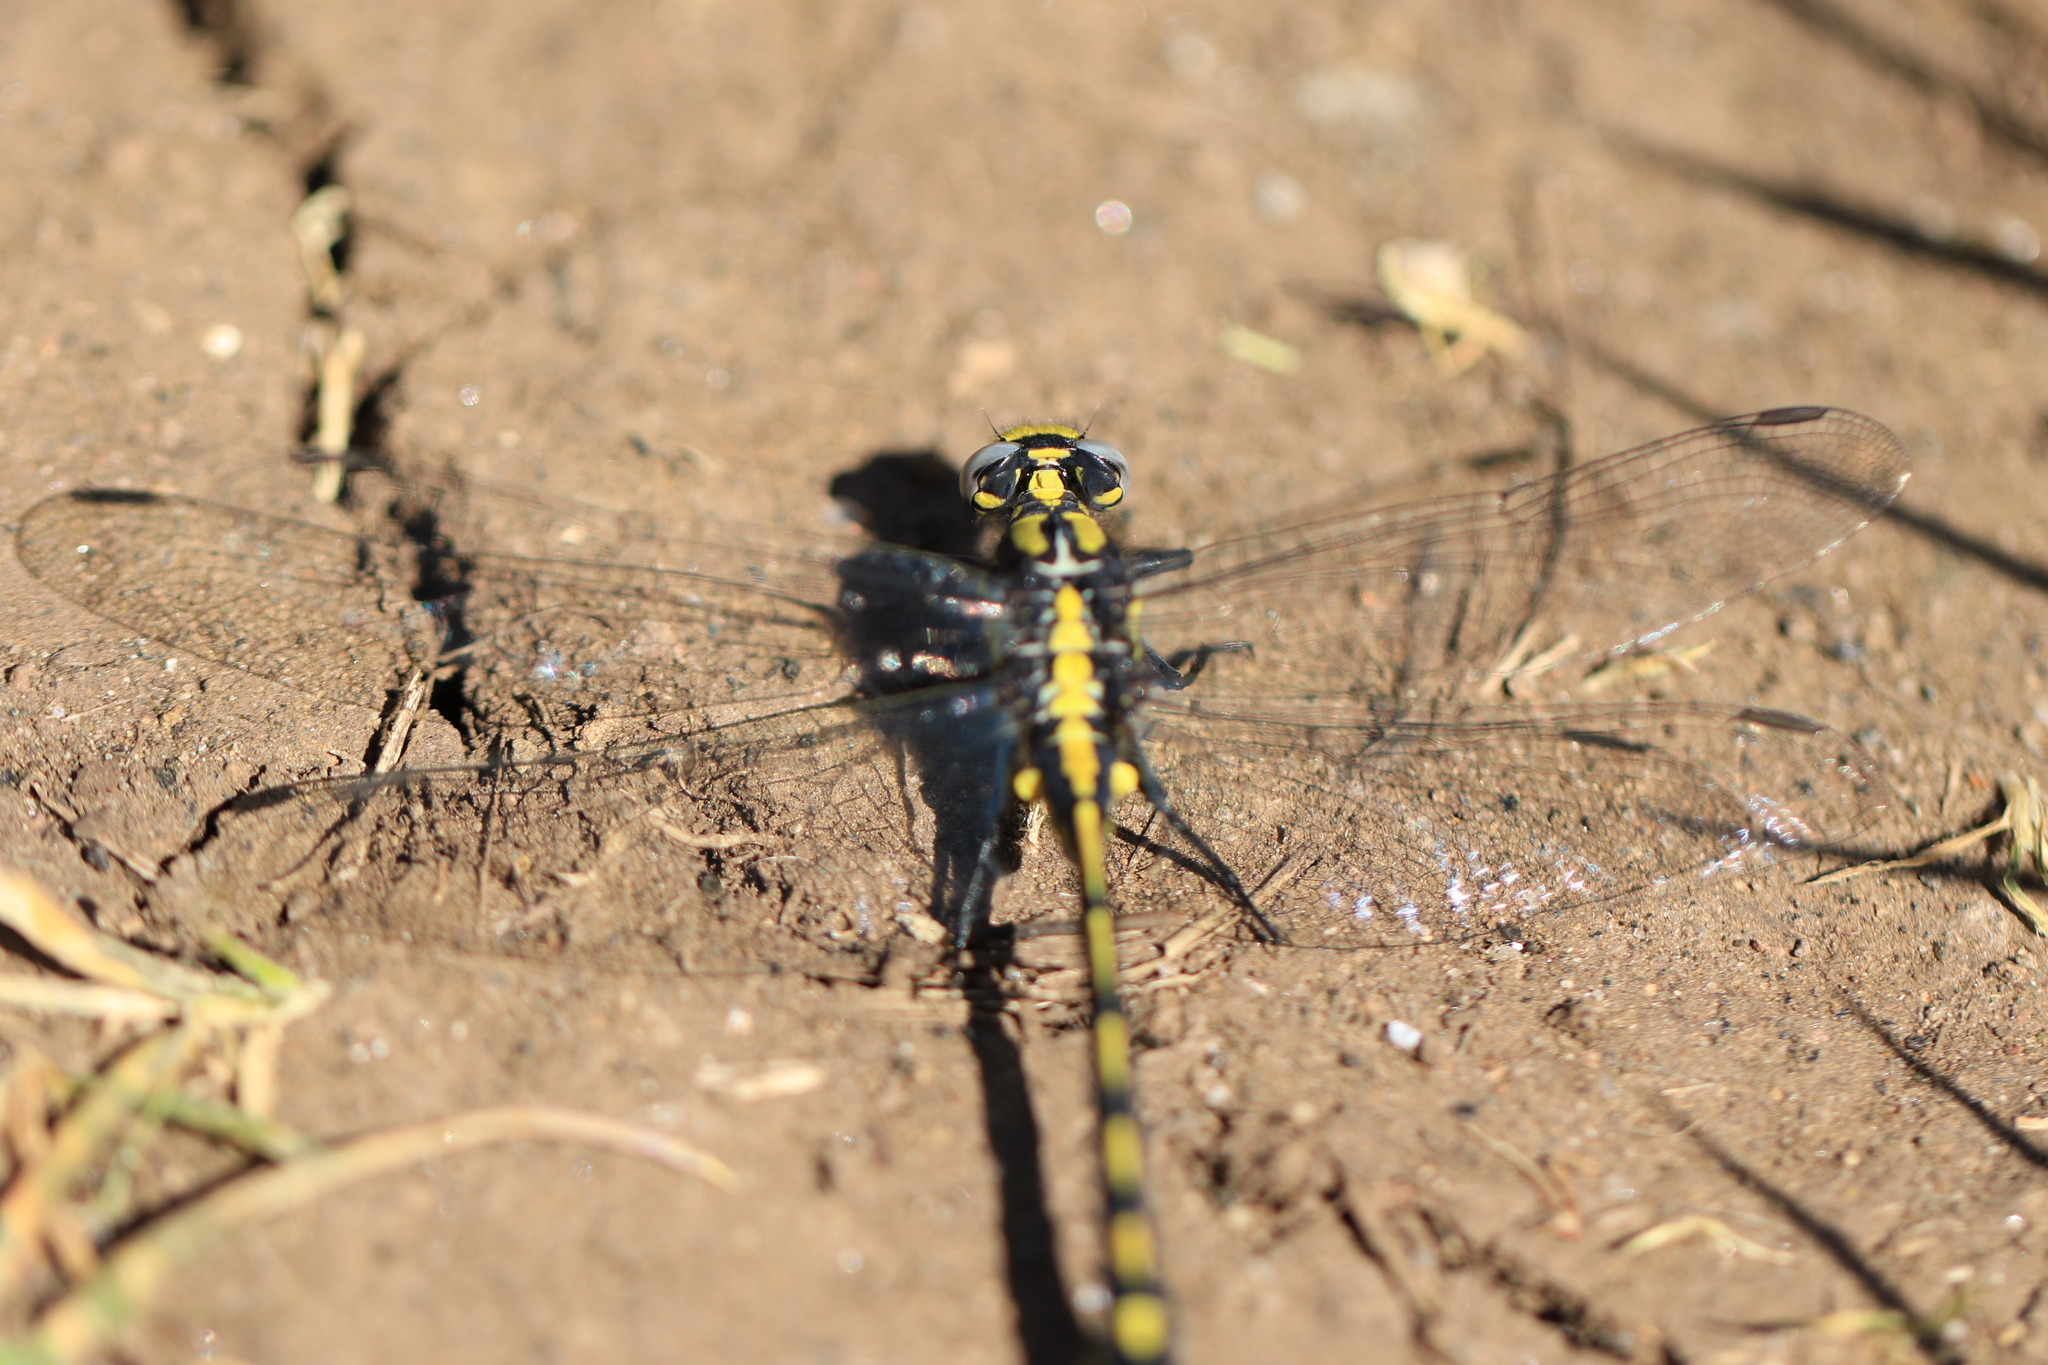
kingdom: Animalia
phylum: Arthropoda
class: Insecta
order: Odonata
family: Gomphidae
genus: Phanogomphus
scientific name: Phanogomphus kurilis
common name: Pacific clubtail
